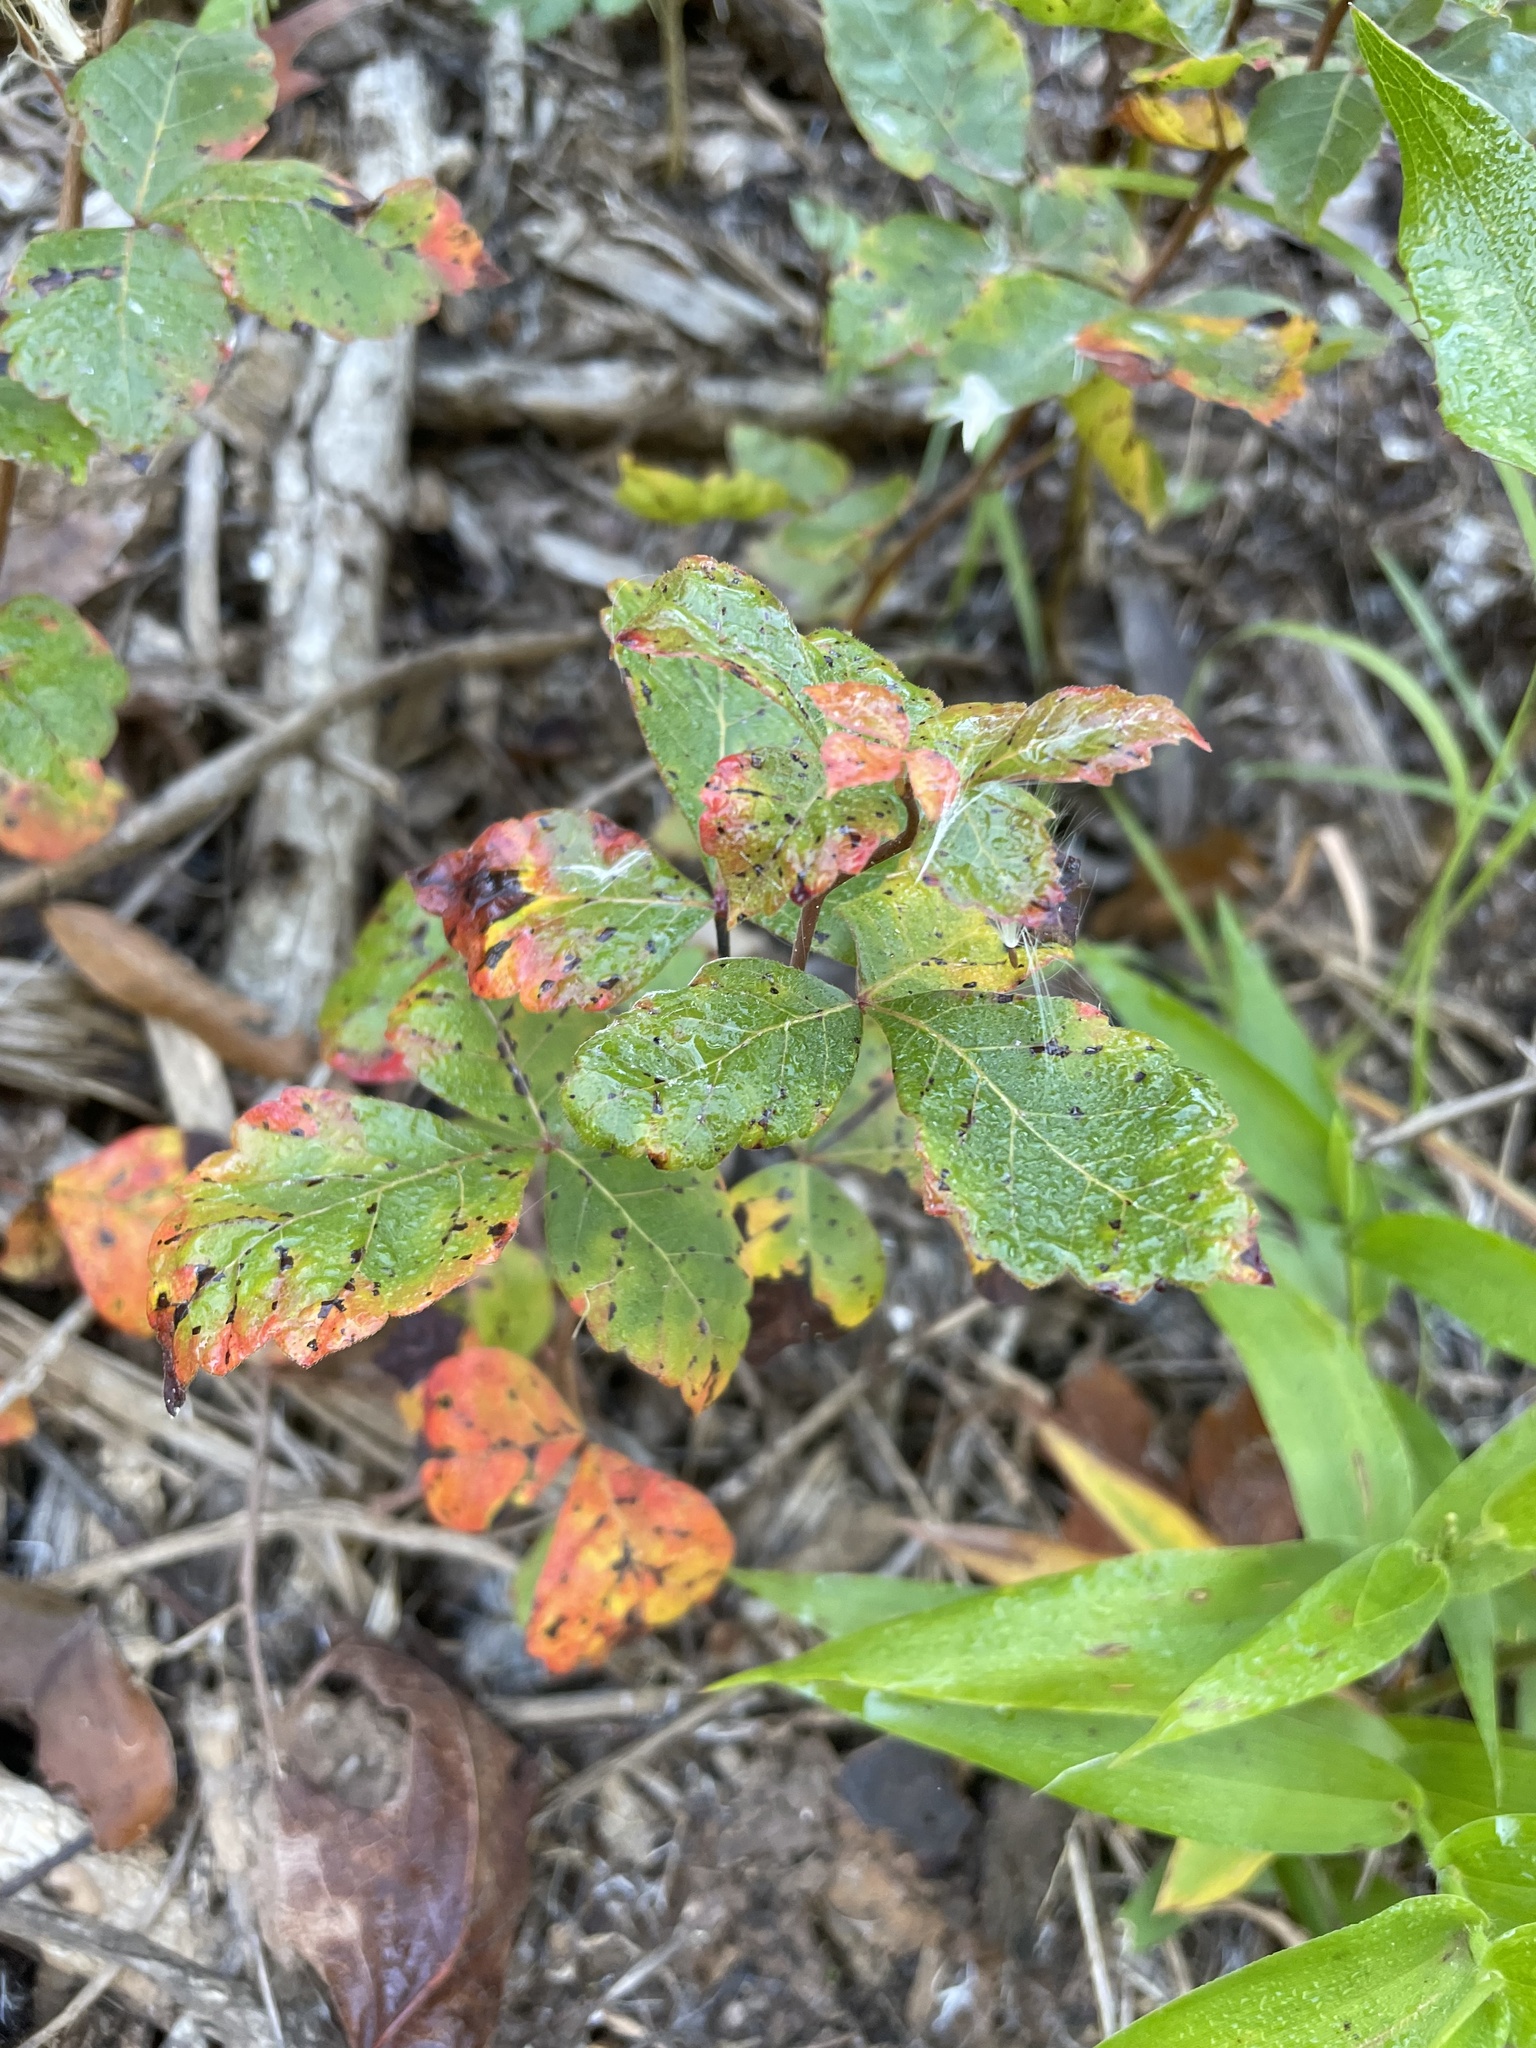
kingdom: Plantae
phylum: Tracheophyta
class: Magnoliopsida
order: Sapindales
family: Anacardiaceae
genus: Rhus
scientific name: Rhus aromatica
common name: Aromatic sumac
